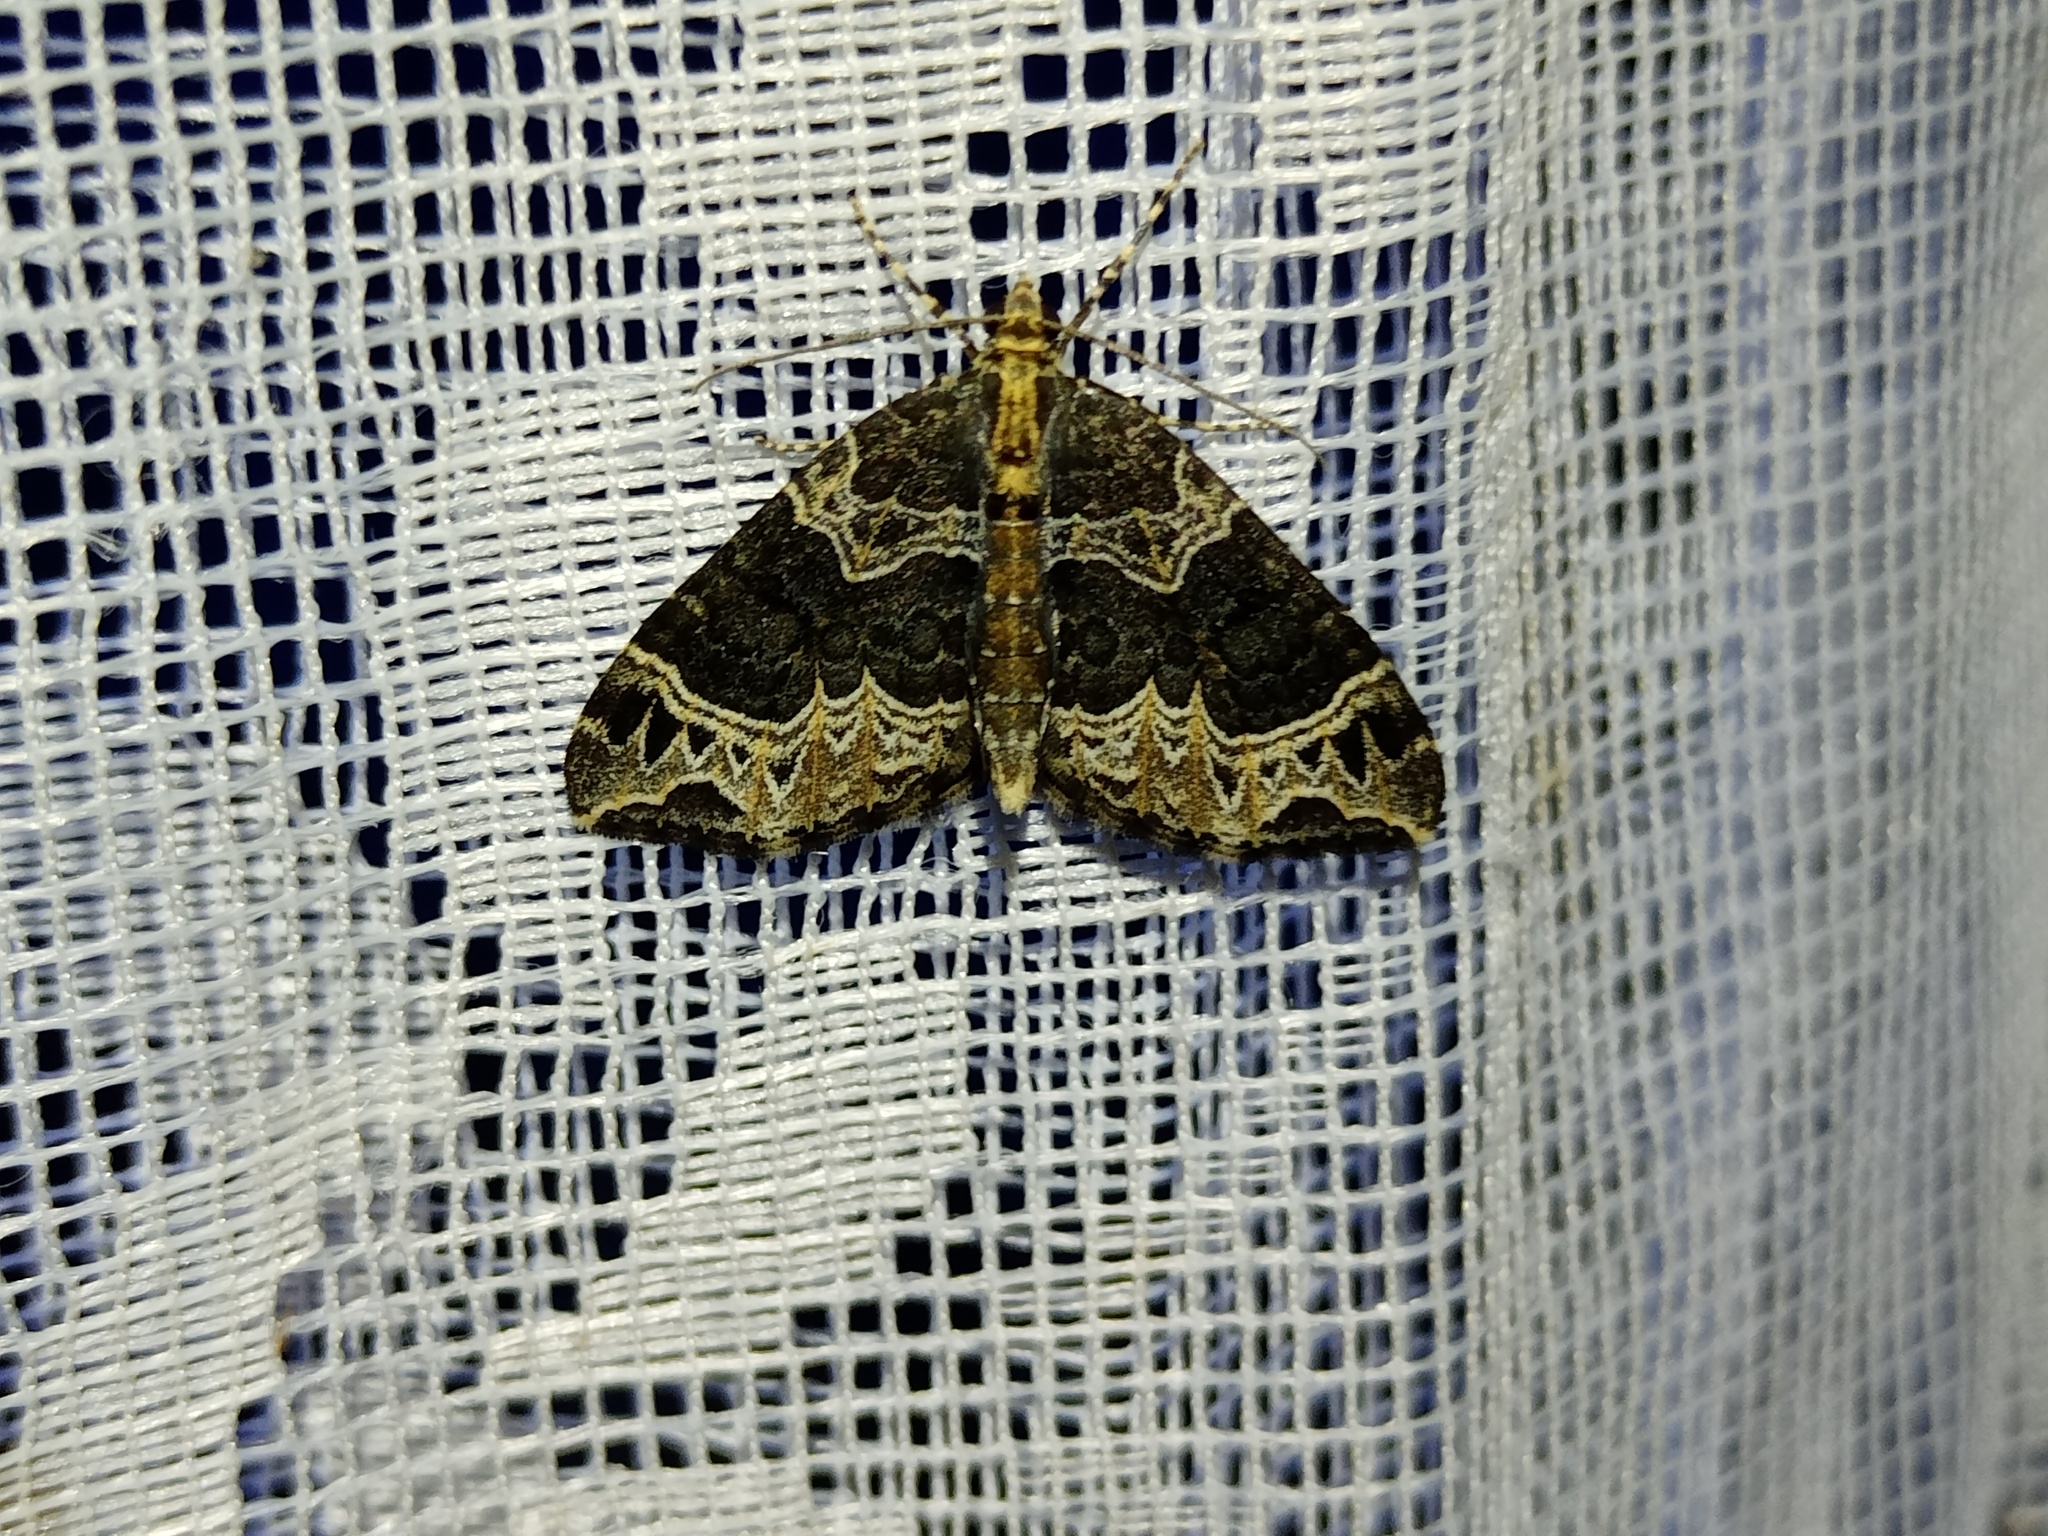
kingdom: Animalia
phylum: Arthropoda
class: Insecta
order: Lepidoptera
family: Geometridae
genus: Ecliptopera
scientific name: Ecliptopera silaceata
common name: Small phoenix
